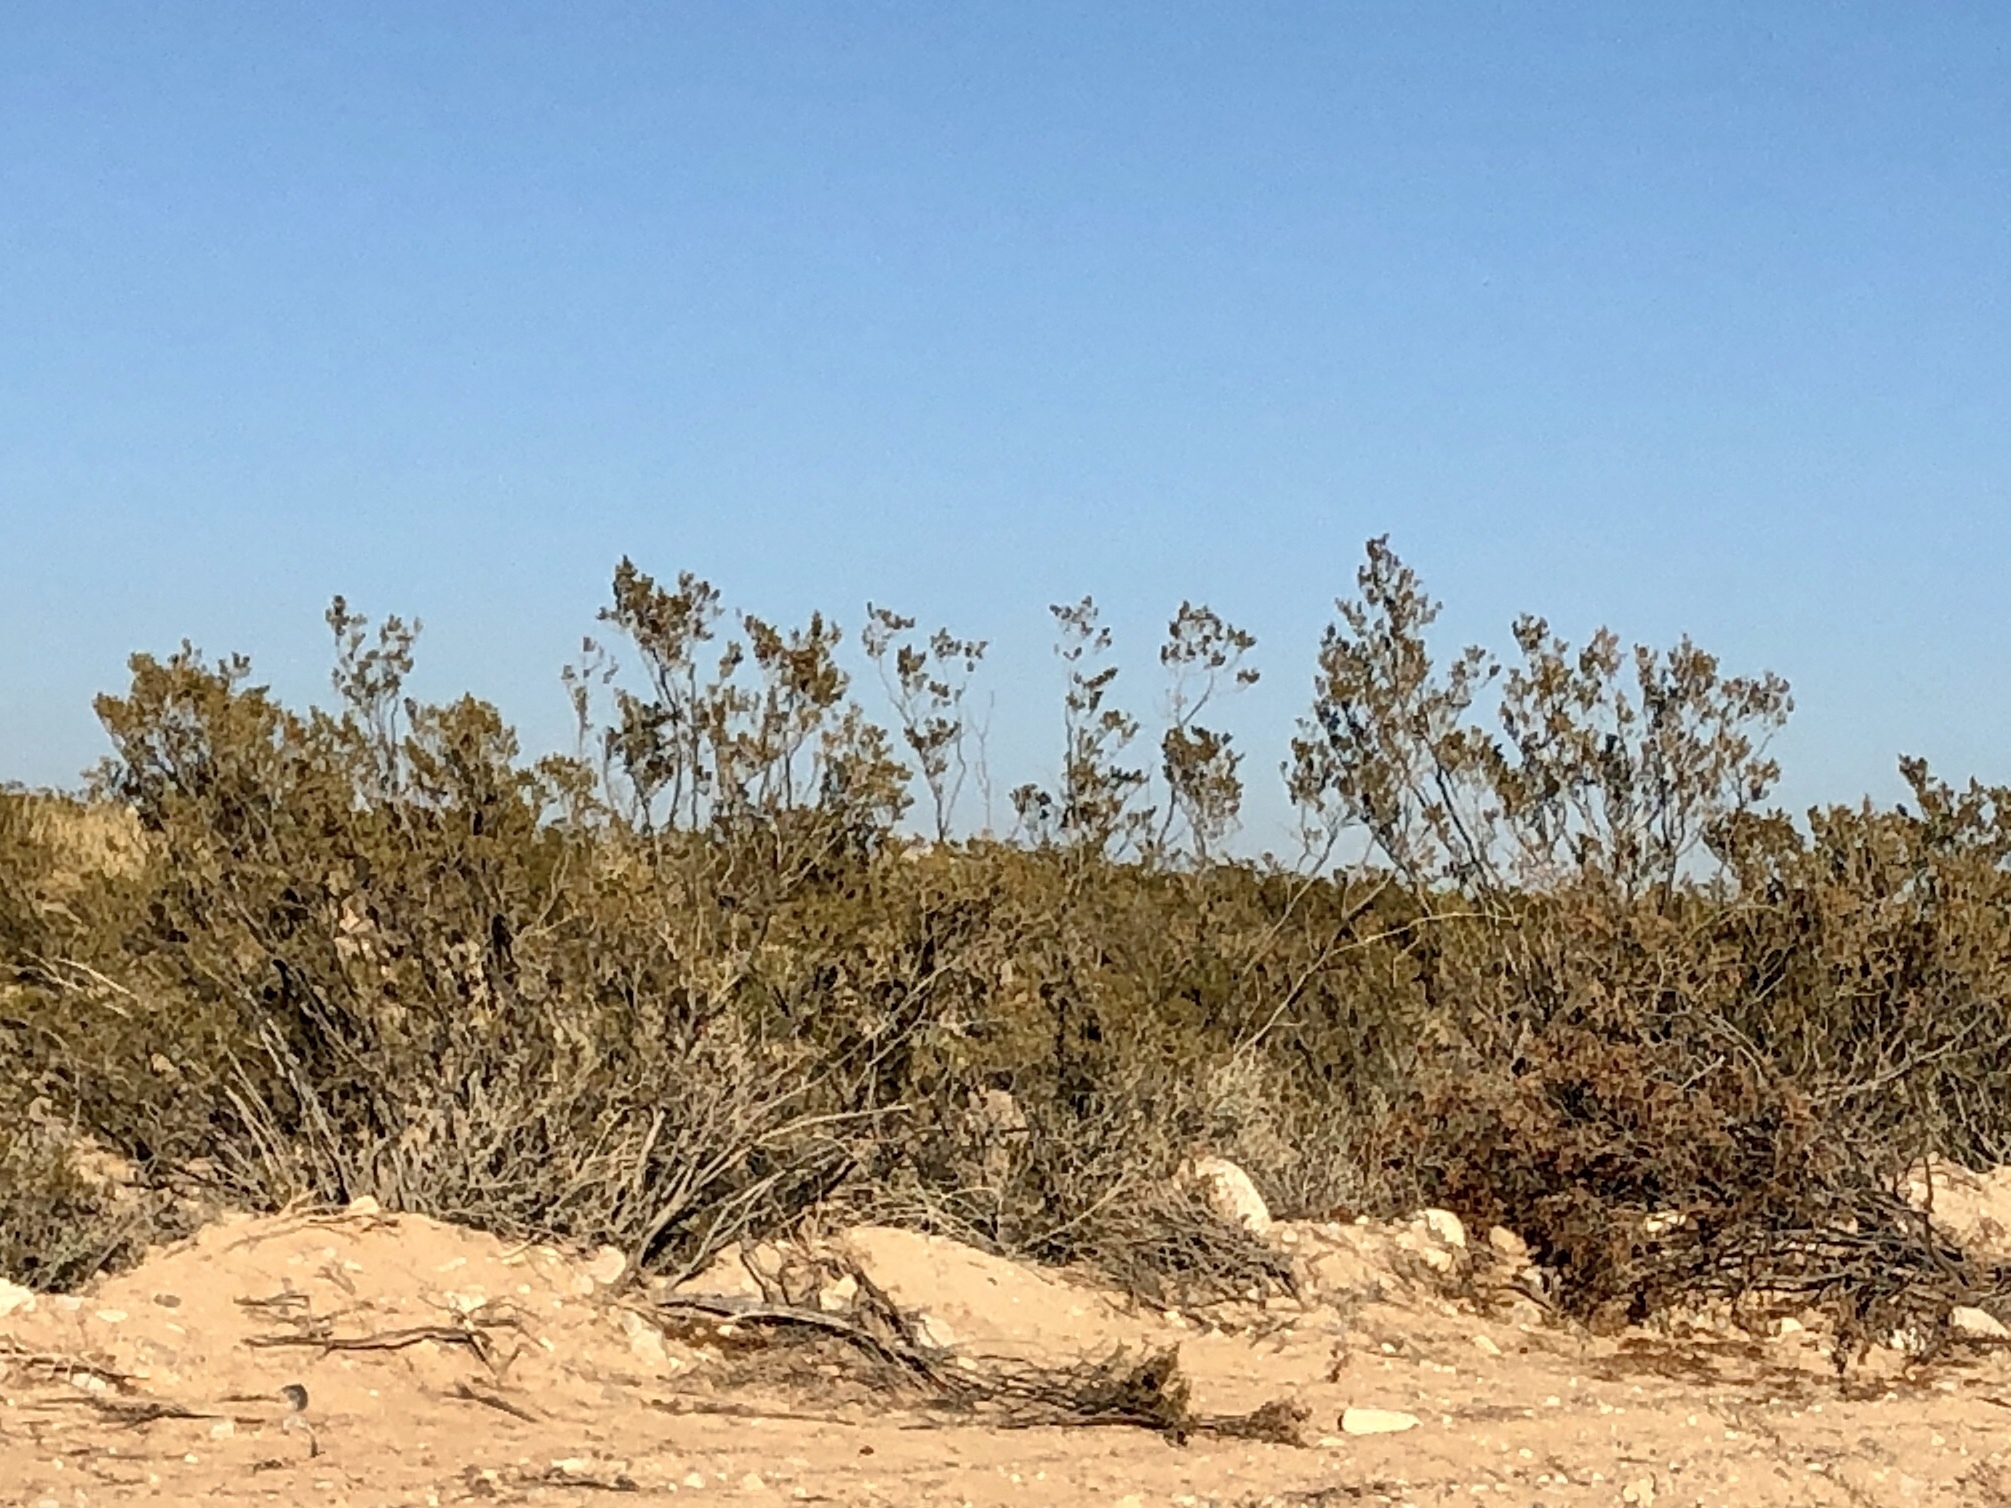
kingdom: Plantae
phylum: Tracheophyta
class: Magnoliopsida
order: Zygophyllales
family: Zygophyllaceae
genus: Larrea
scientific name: Larrea tridentata
